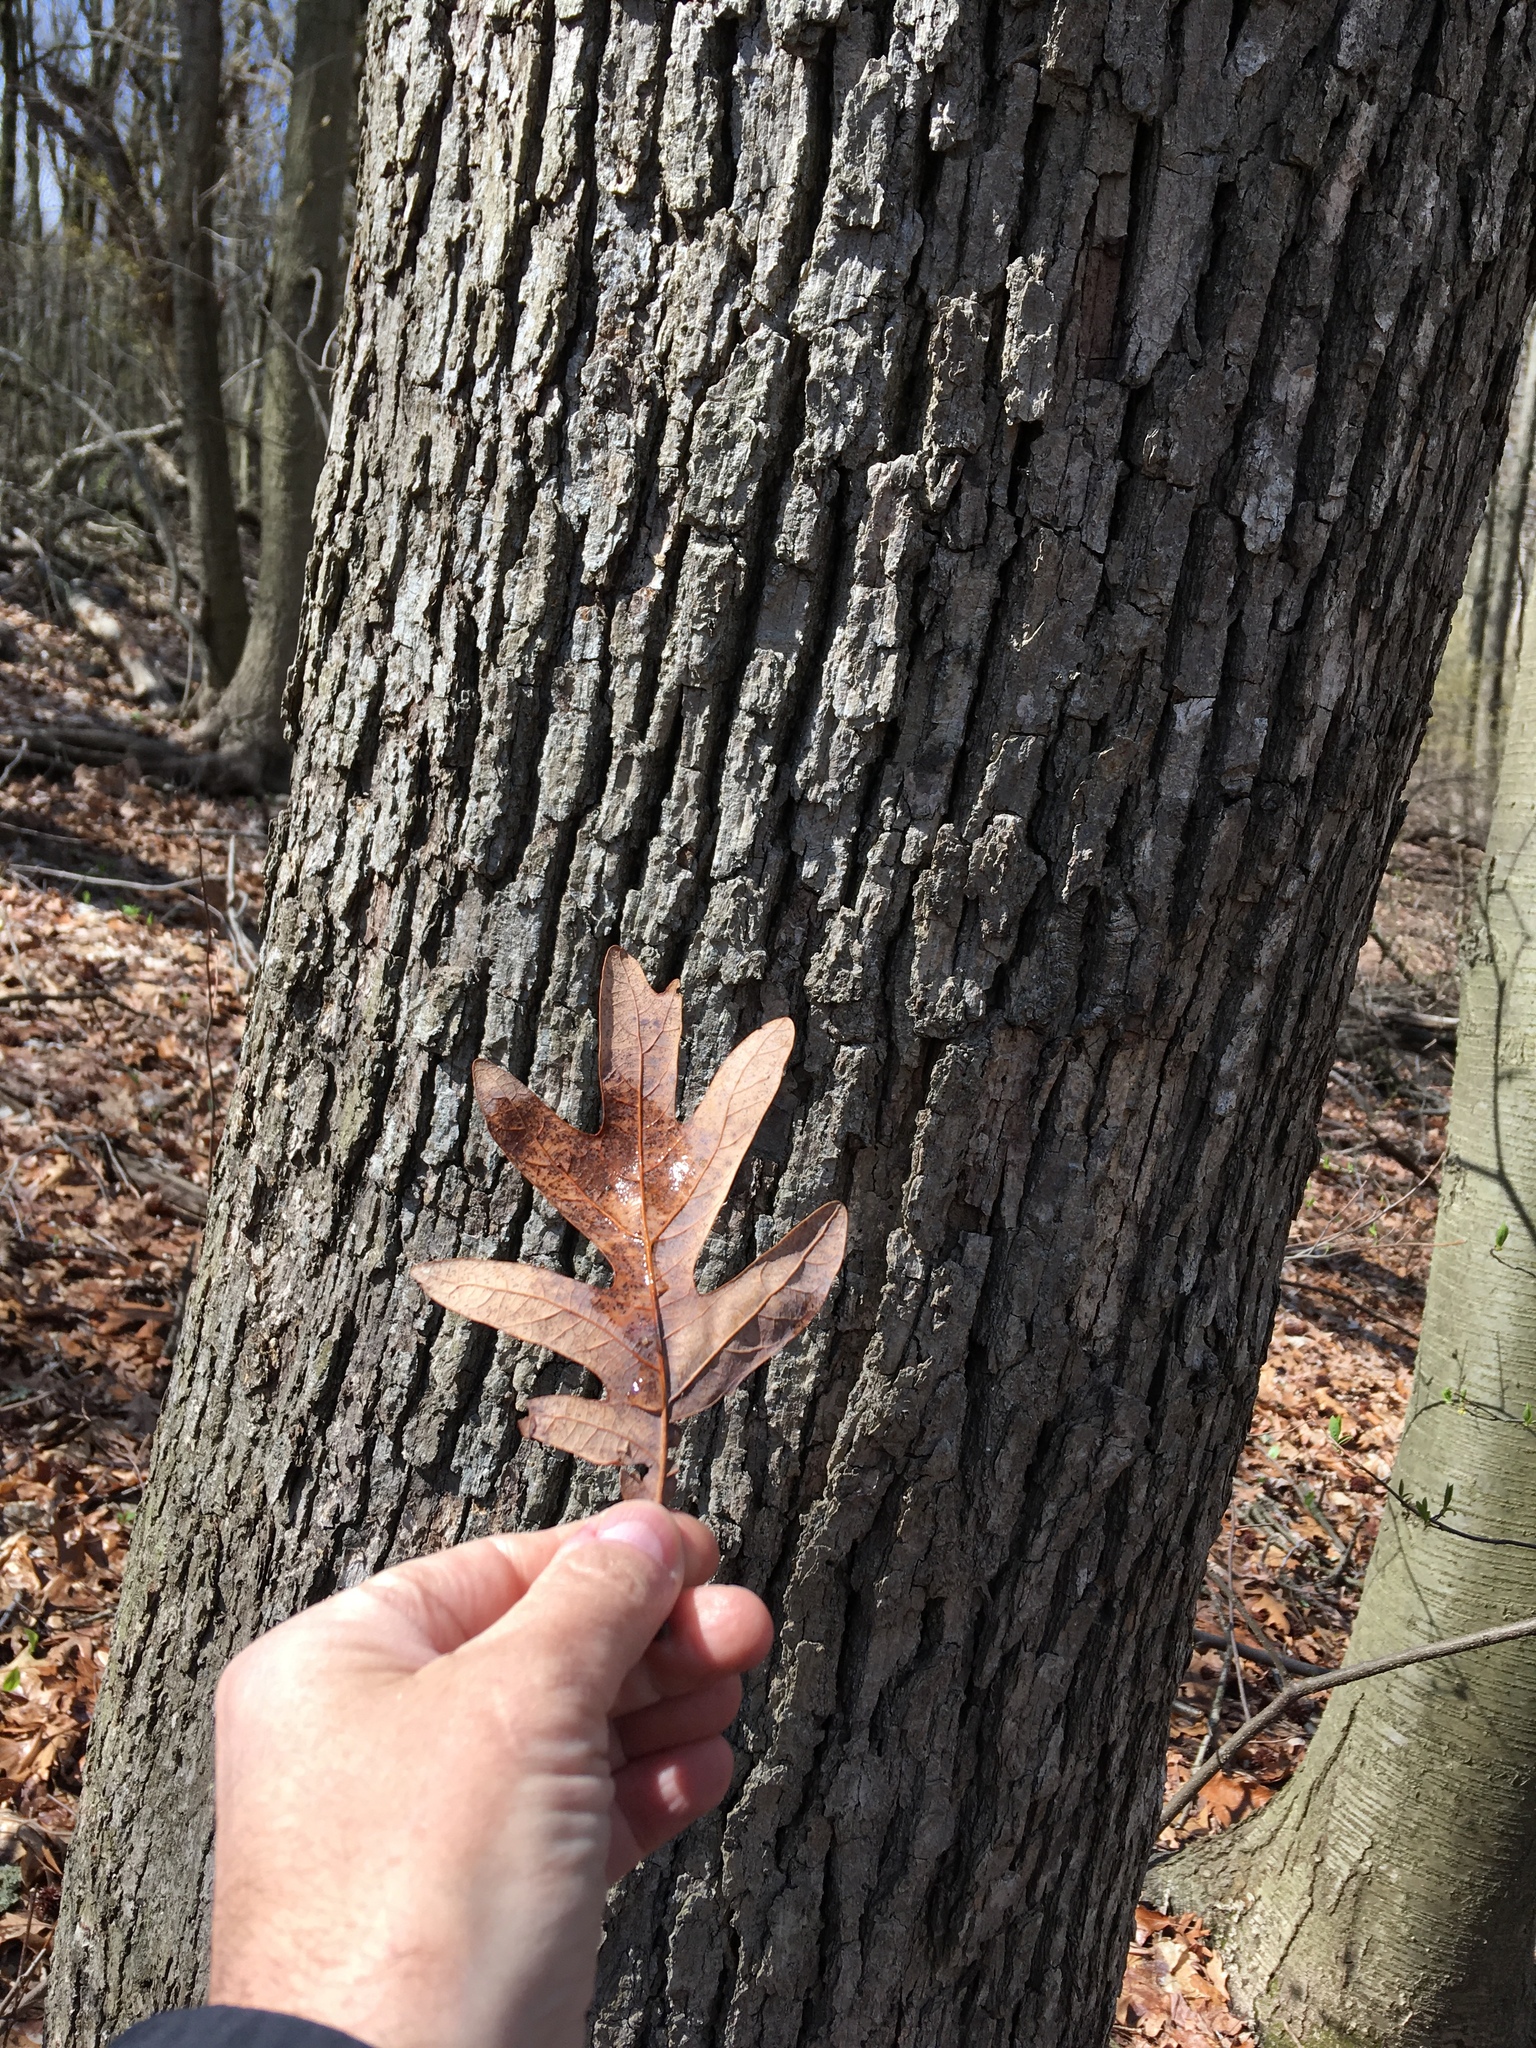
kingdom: Plantae
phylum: Tracheophyta
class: Magnoliopsida
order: Fagales
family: Fagaceae
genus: Quercus
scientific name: Quercus alba
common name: White oak
